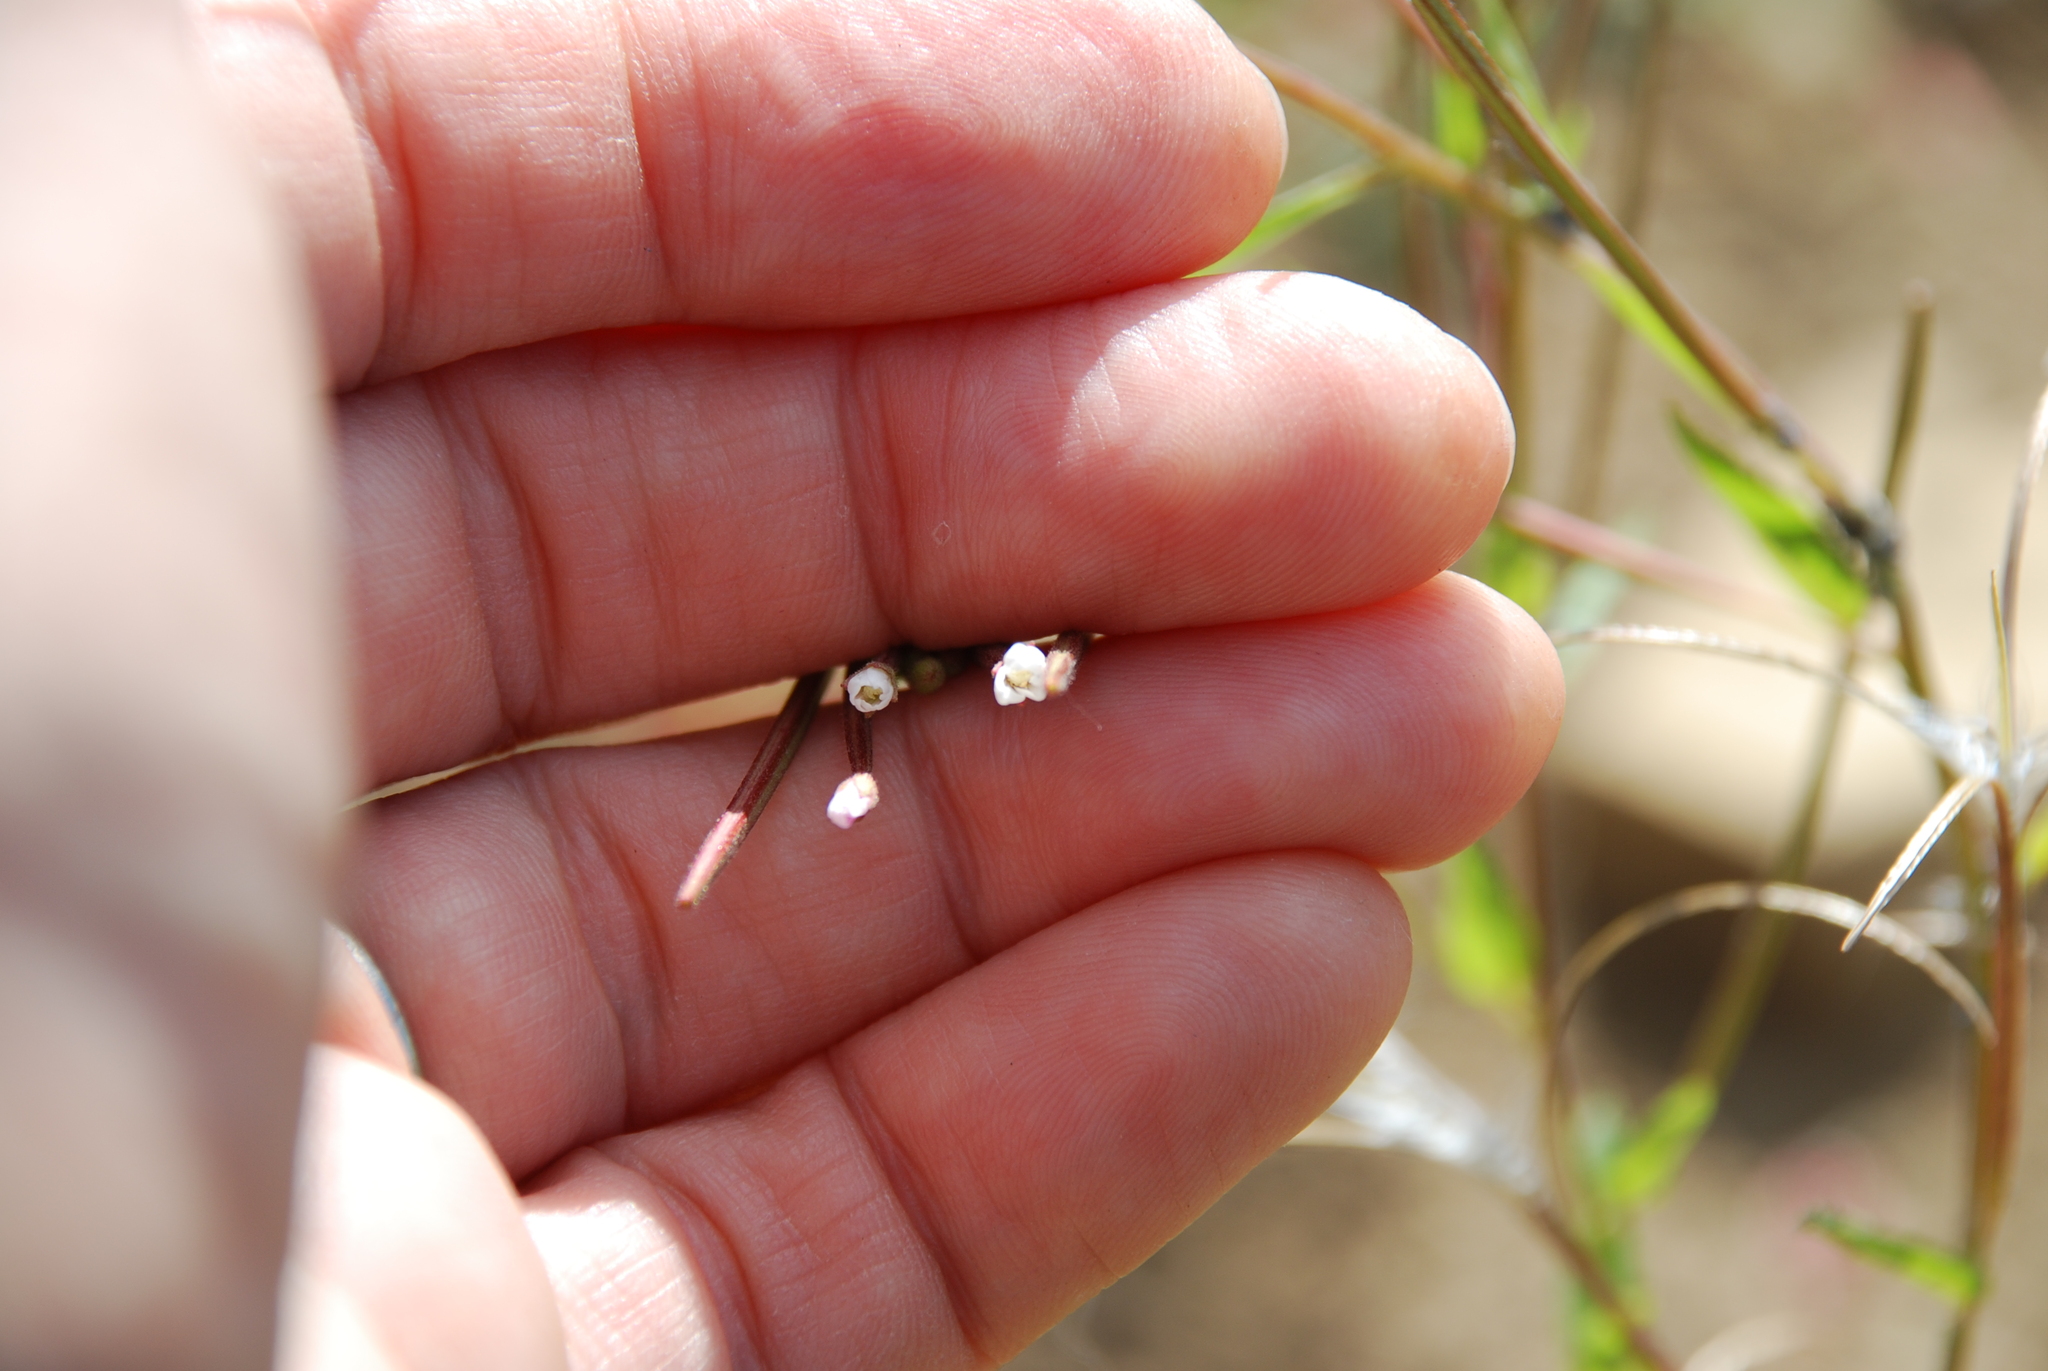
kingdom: Plantae
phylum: Tracheophyta
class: Magnoliopsida
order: Myrtales
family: Onagraceae
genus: Epilobium
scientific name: Epilobium pseudorubescens
